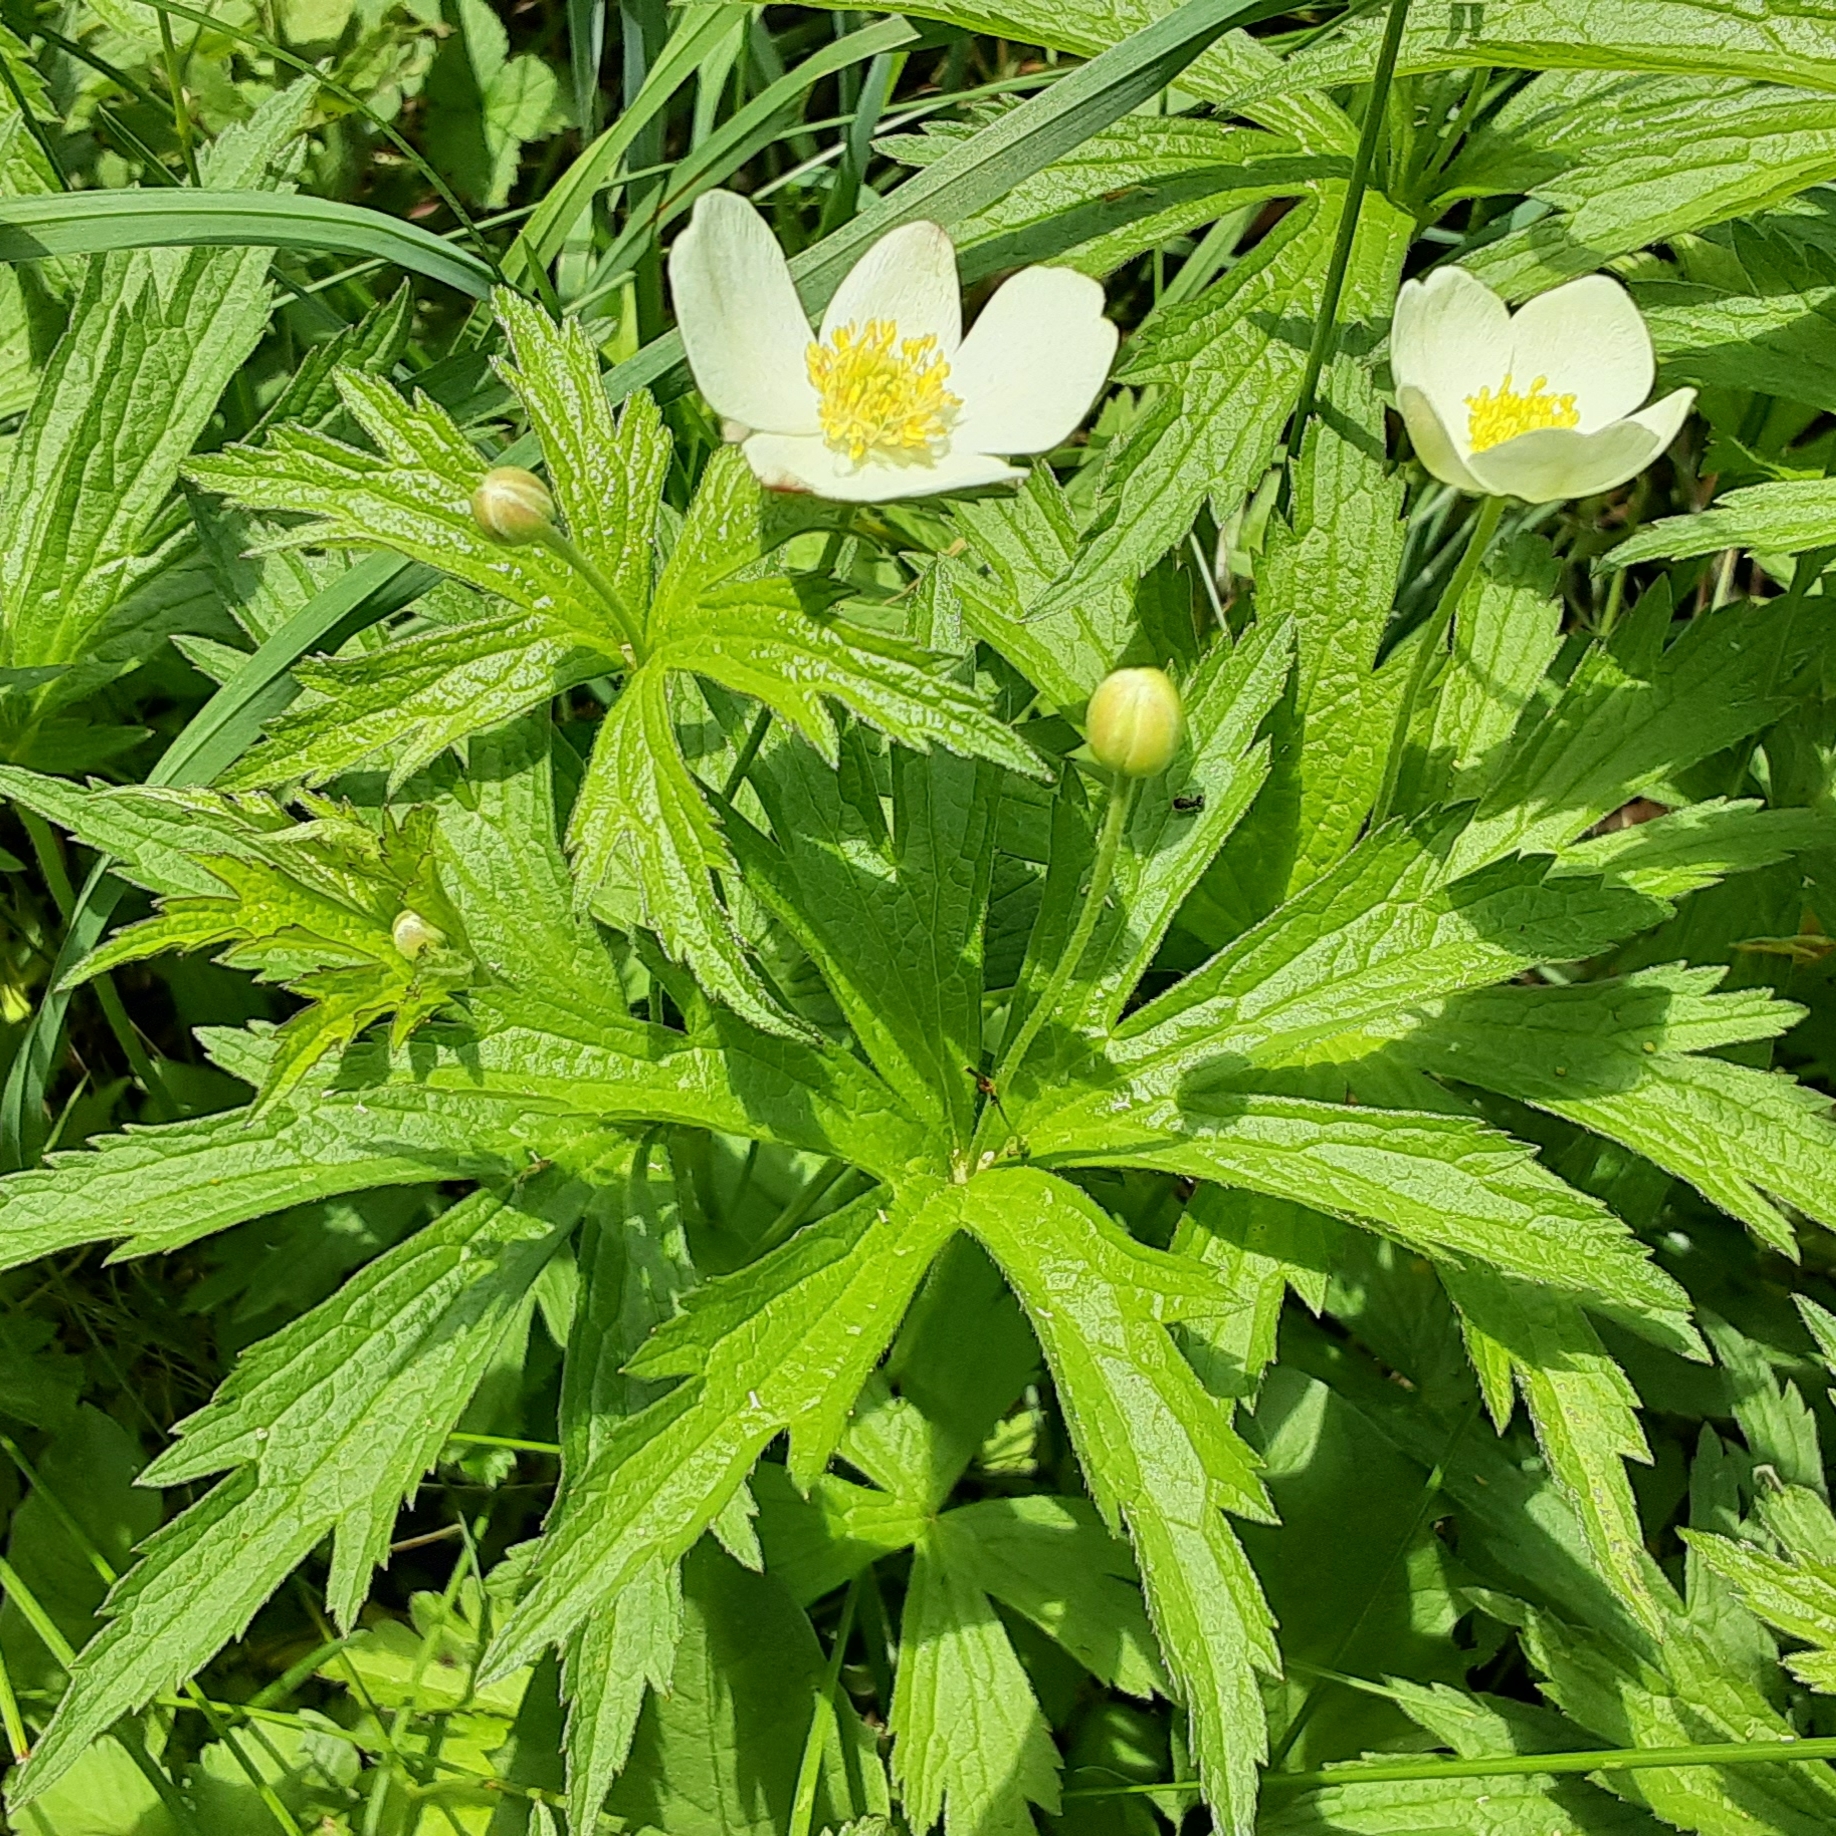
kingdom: Plantae
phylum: Tracheophyta
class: Magnoliopsida
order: Ranunculales
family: Ranunculaceae
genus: Anemonastrum
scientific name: Anemonastrum canadense
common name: Canada anemone
